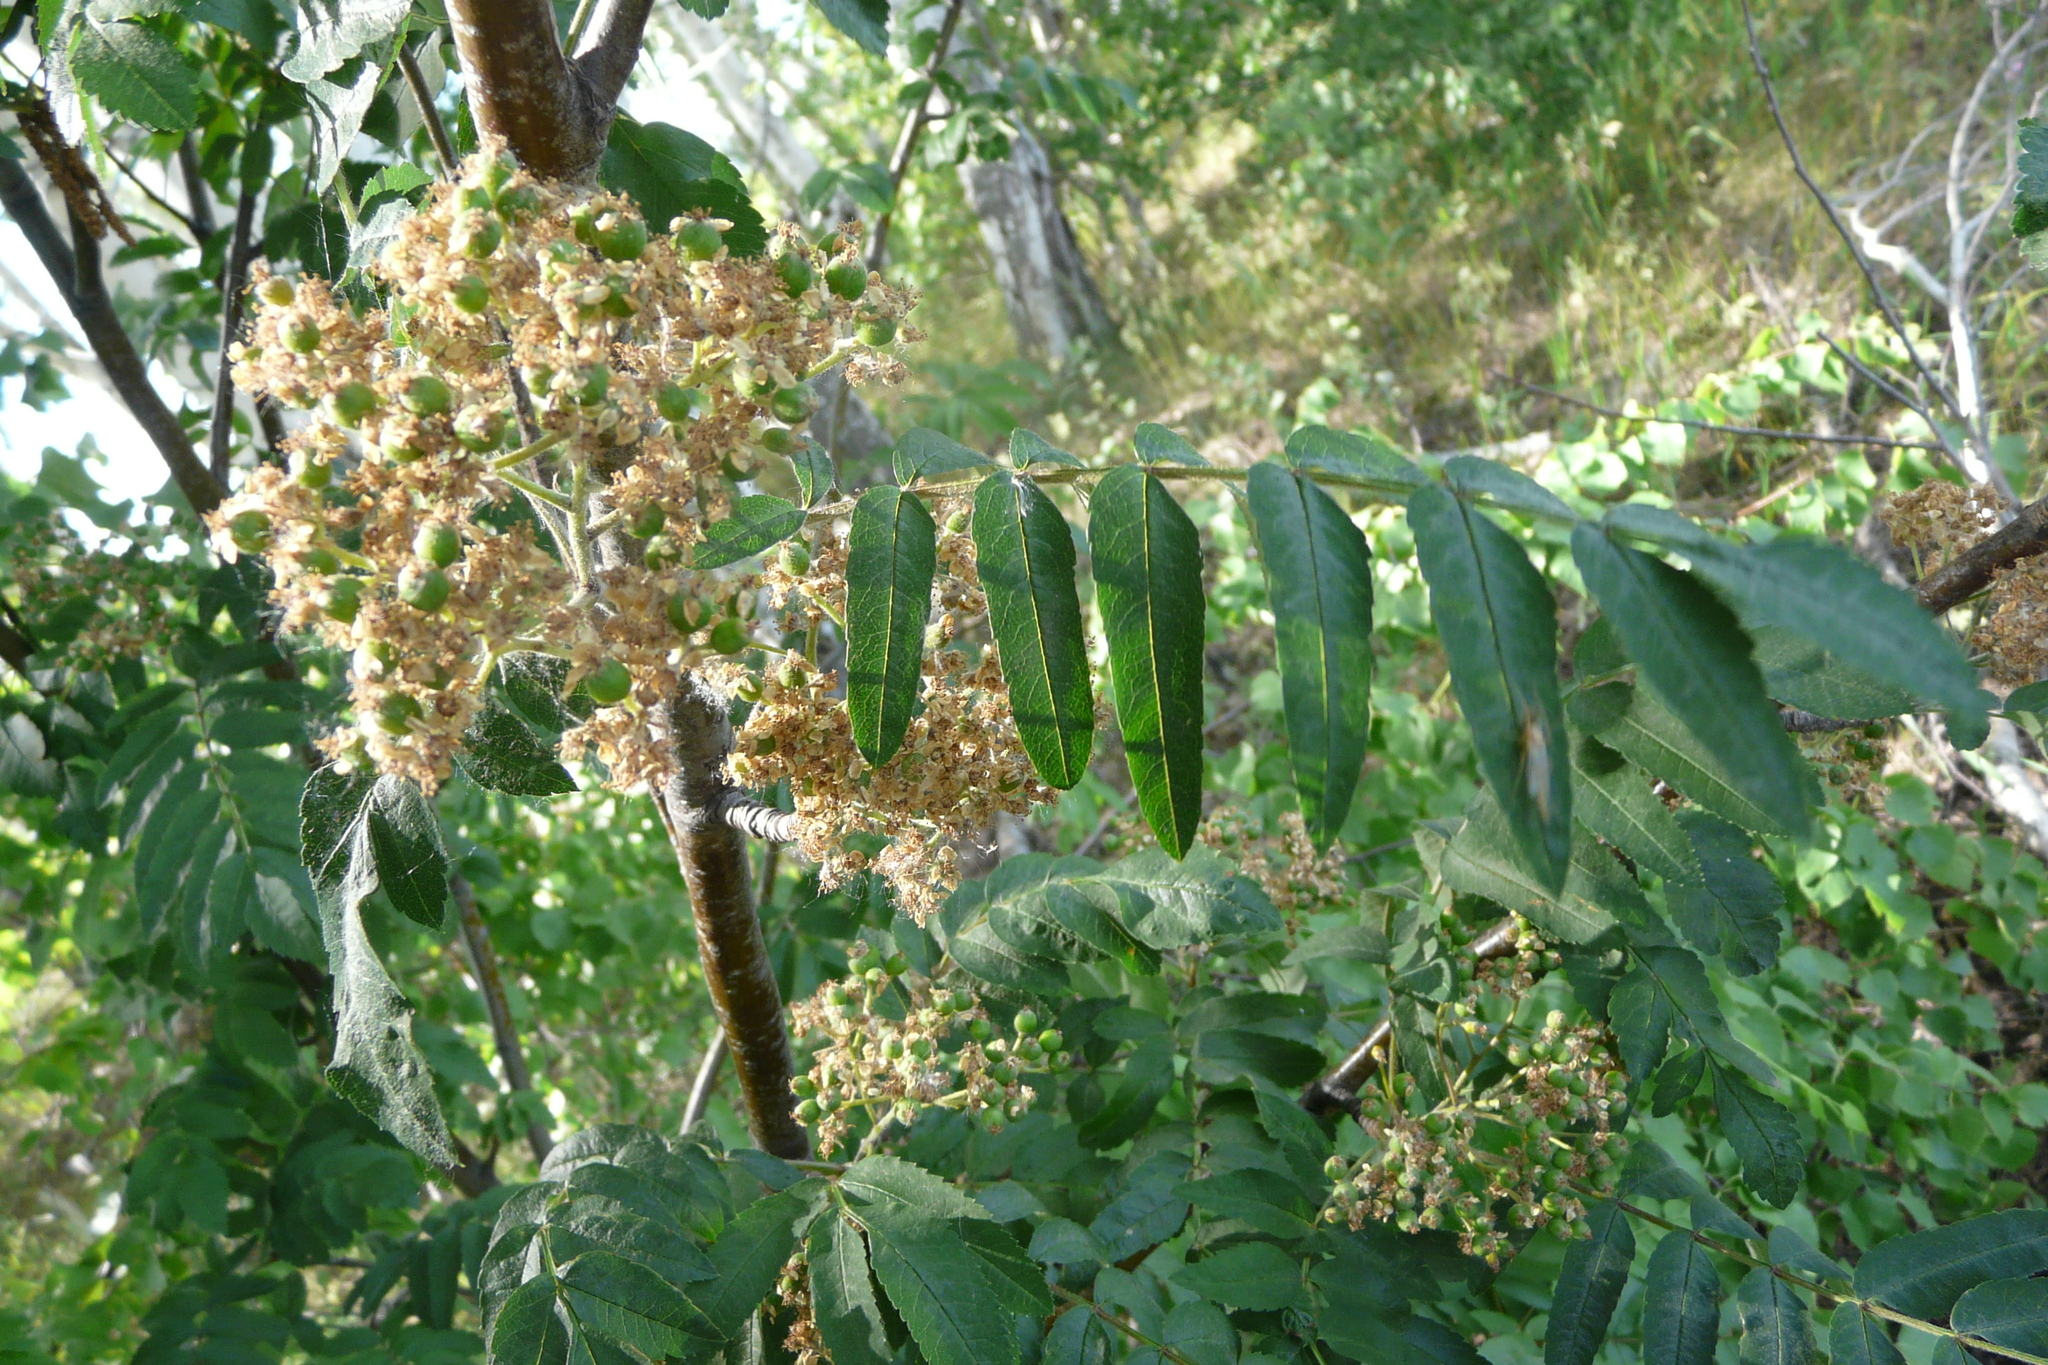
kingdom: Plantae
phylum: Tracheophyta
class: Magnoliopsida
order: Rosales
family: Rosaceae
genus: Sorbus
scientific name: Sorbus aucuparia
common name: Rowan
